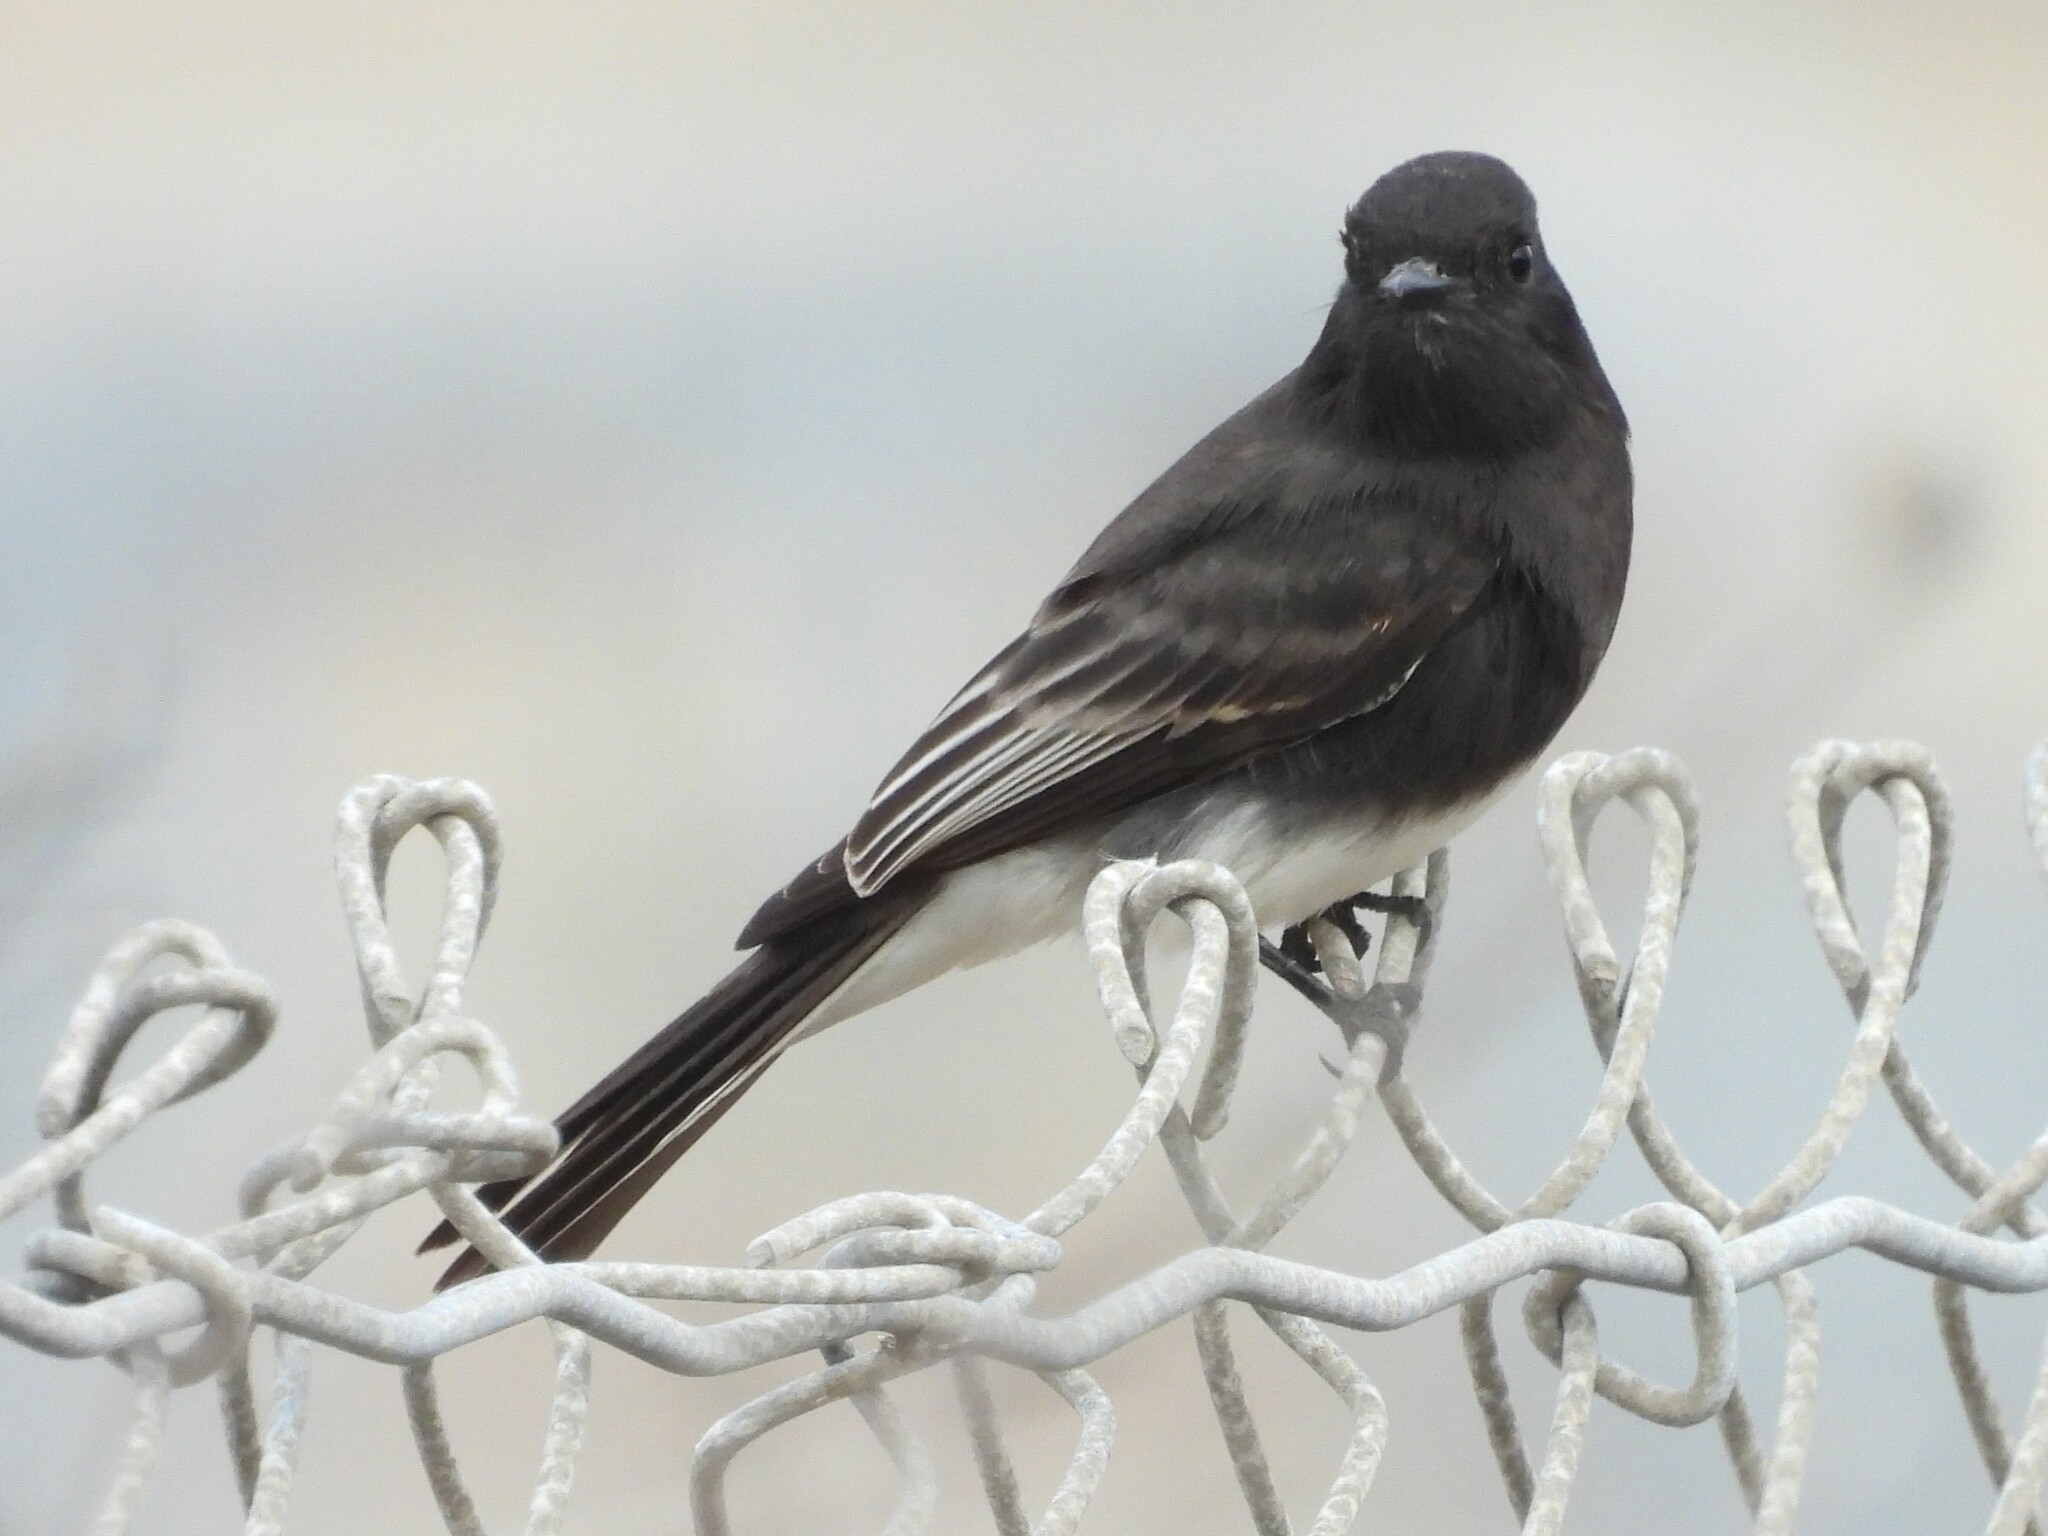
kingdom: Animalia
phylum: Chordata
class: Aves
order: Passeriformes
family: Tyrannidae
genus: Sayornis
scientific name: Sayornis nigricans
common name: Black phoebe
